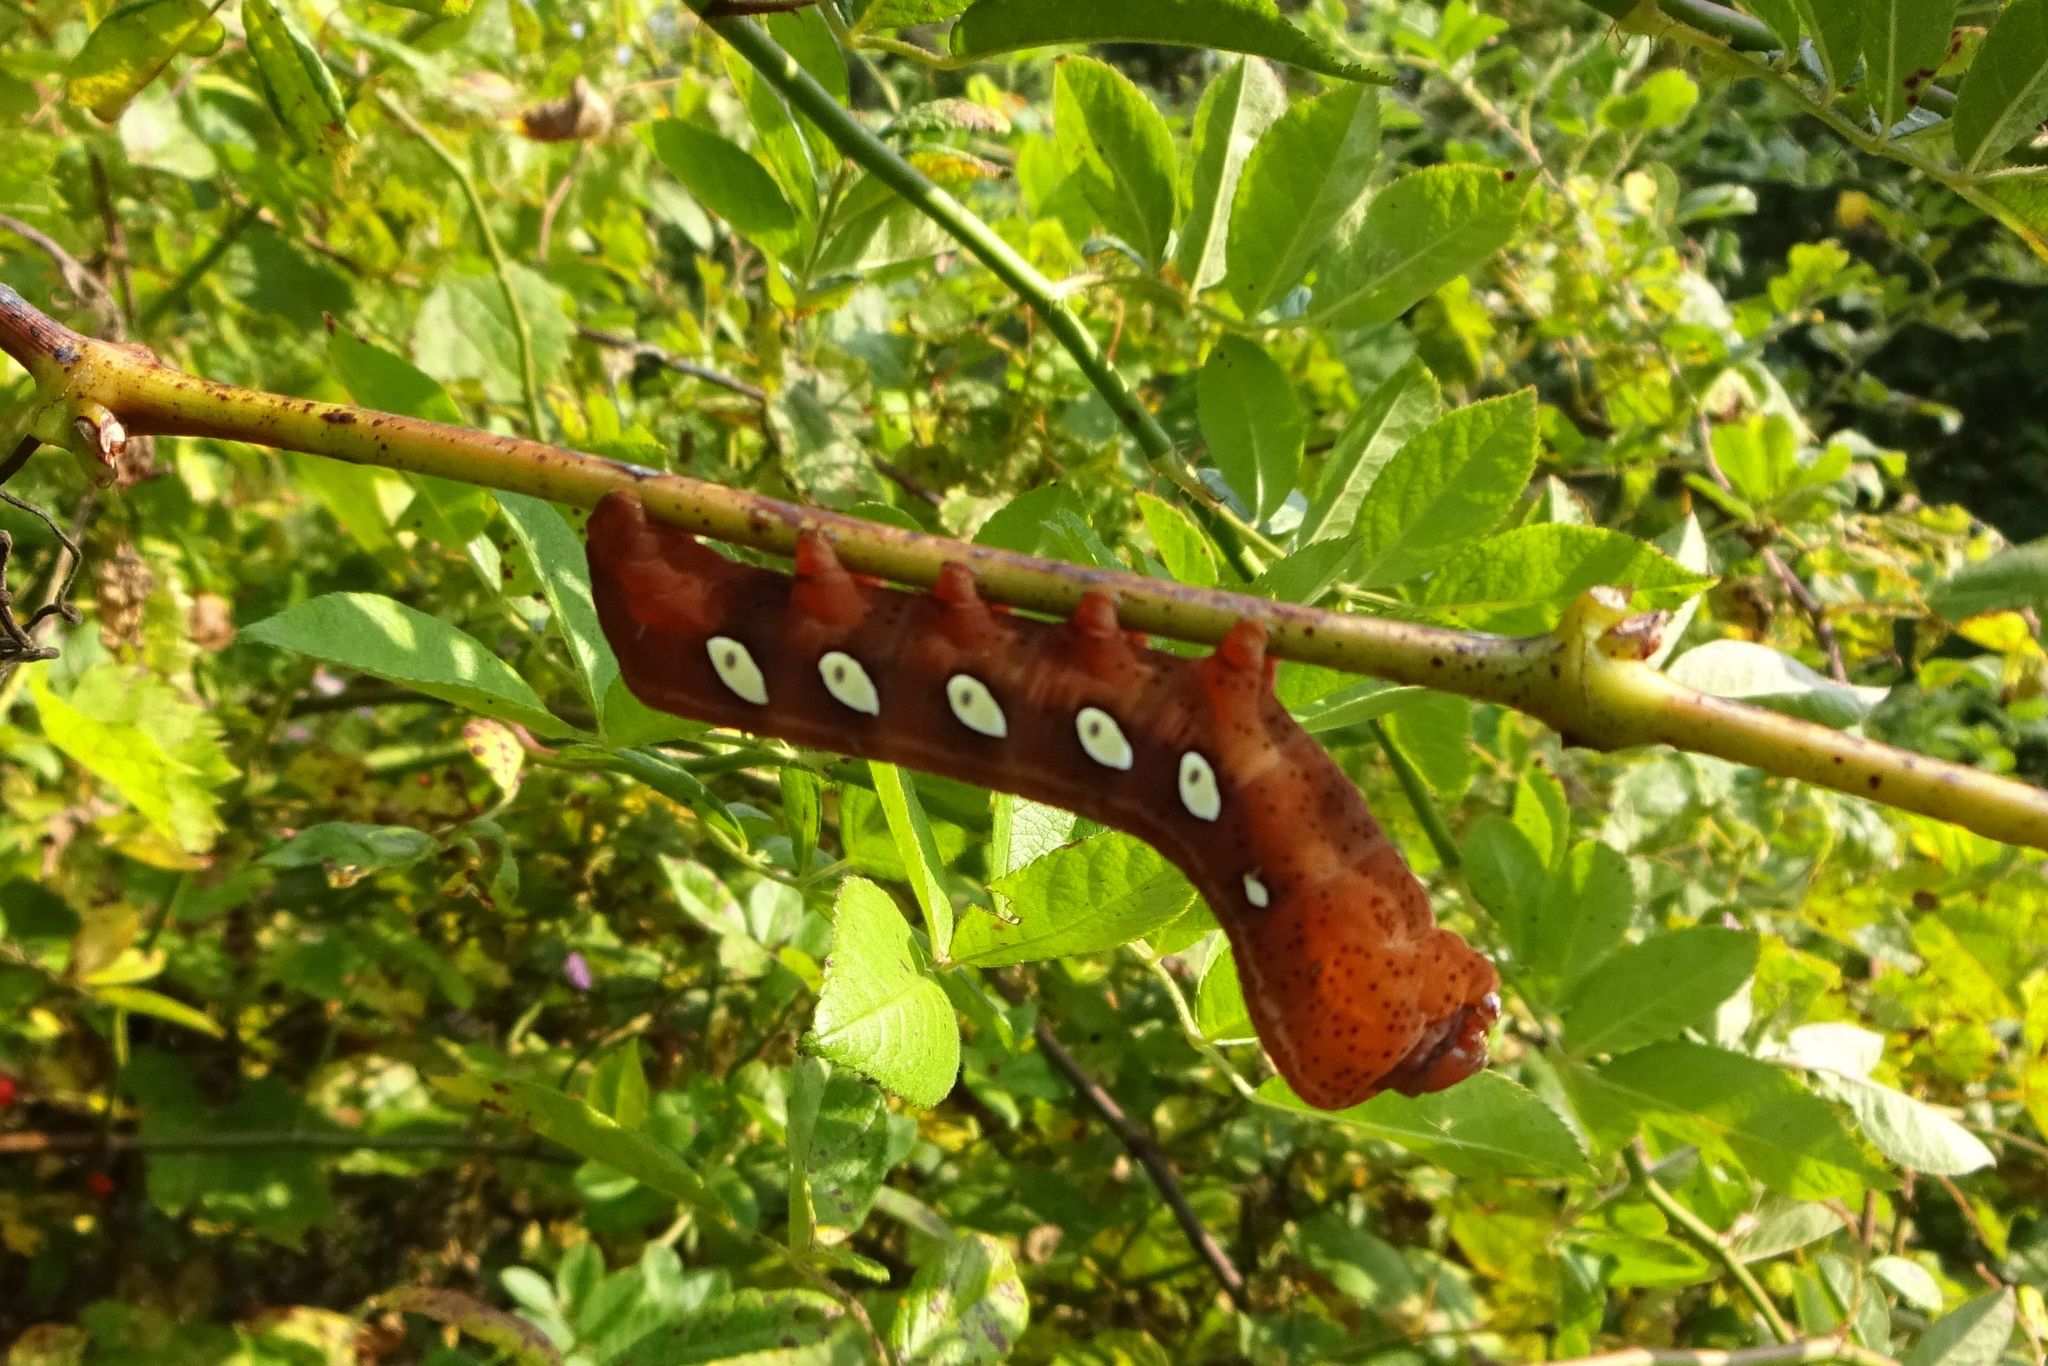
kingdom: Animalia
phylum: Arthropoda
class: Insecta
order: Lepidoptera
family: Sphingidae
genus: Eumorpha
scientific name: Eumorpha pandorus
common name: Pandora sphinx
